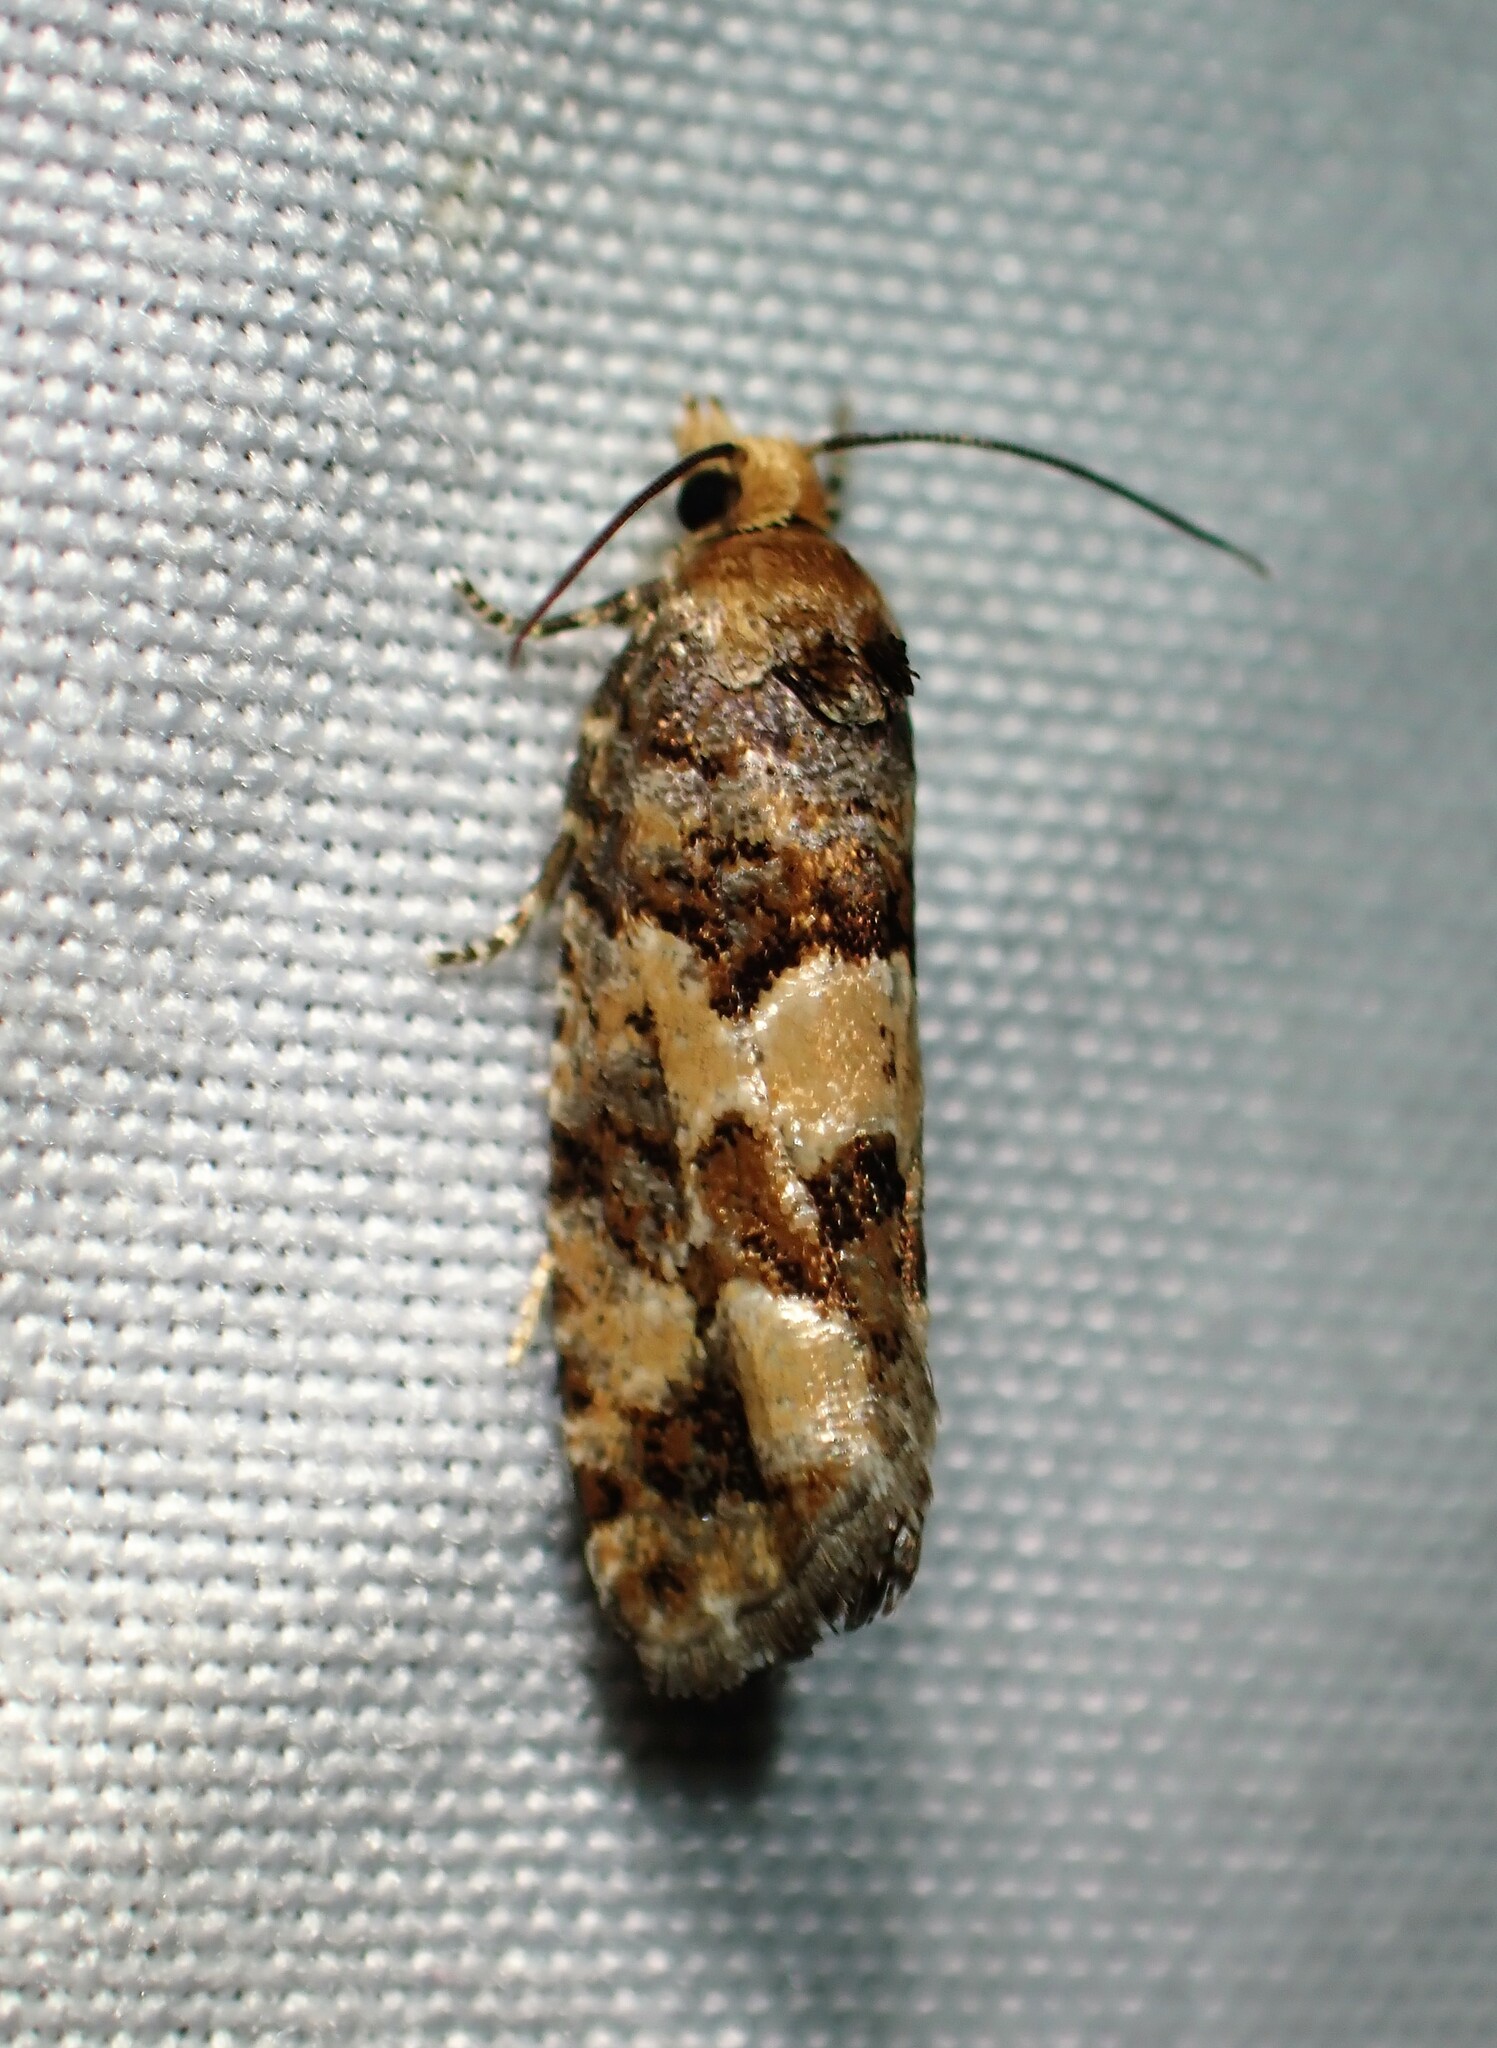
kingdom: Animalia
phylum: Arthropoda
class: Insecta
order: Lepidoptera
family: Tortricidae
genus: Eucopina
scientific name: Eucopina tocullionana
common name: White pinecone borer moth
